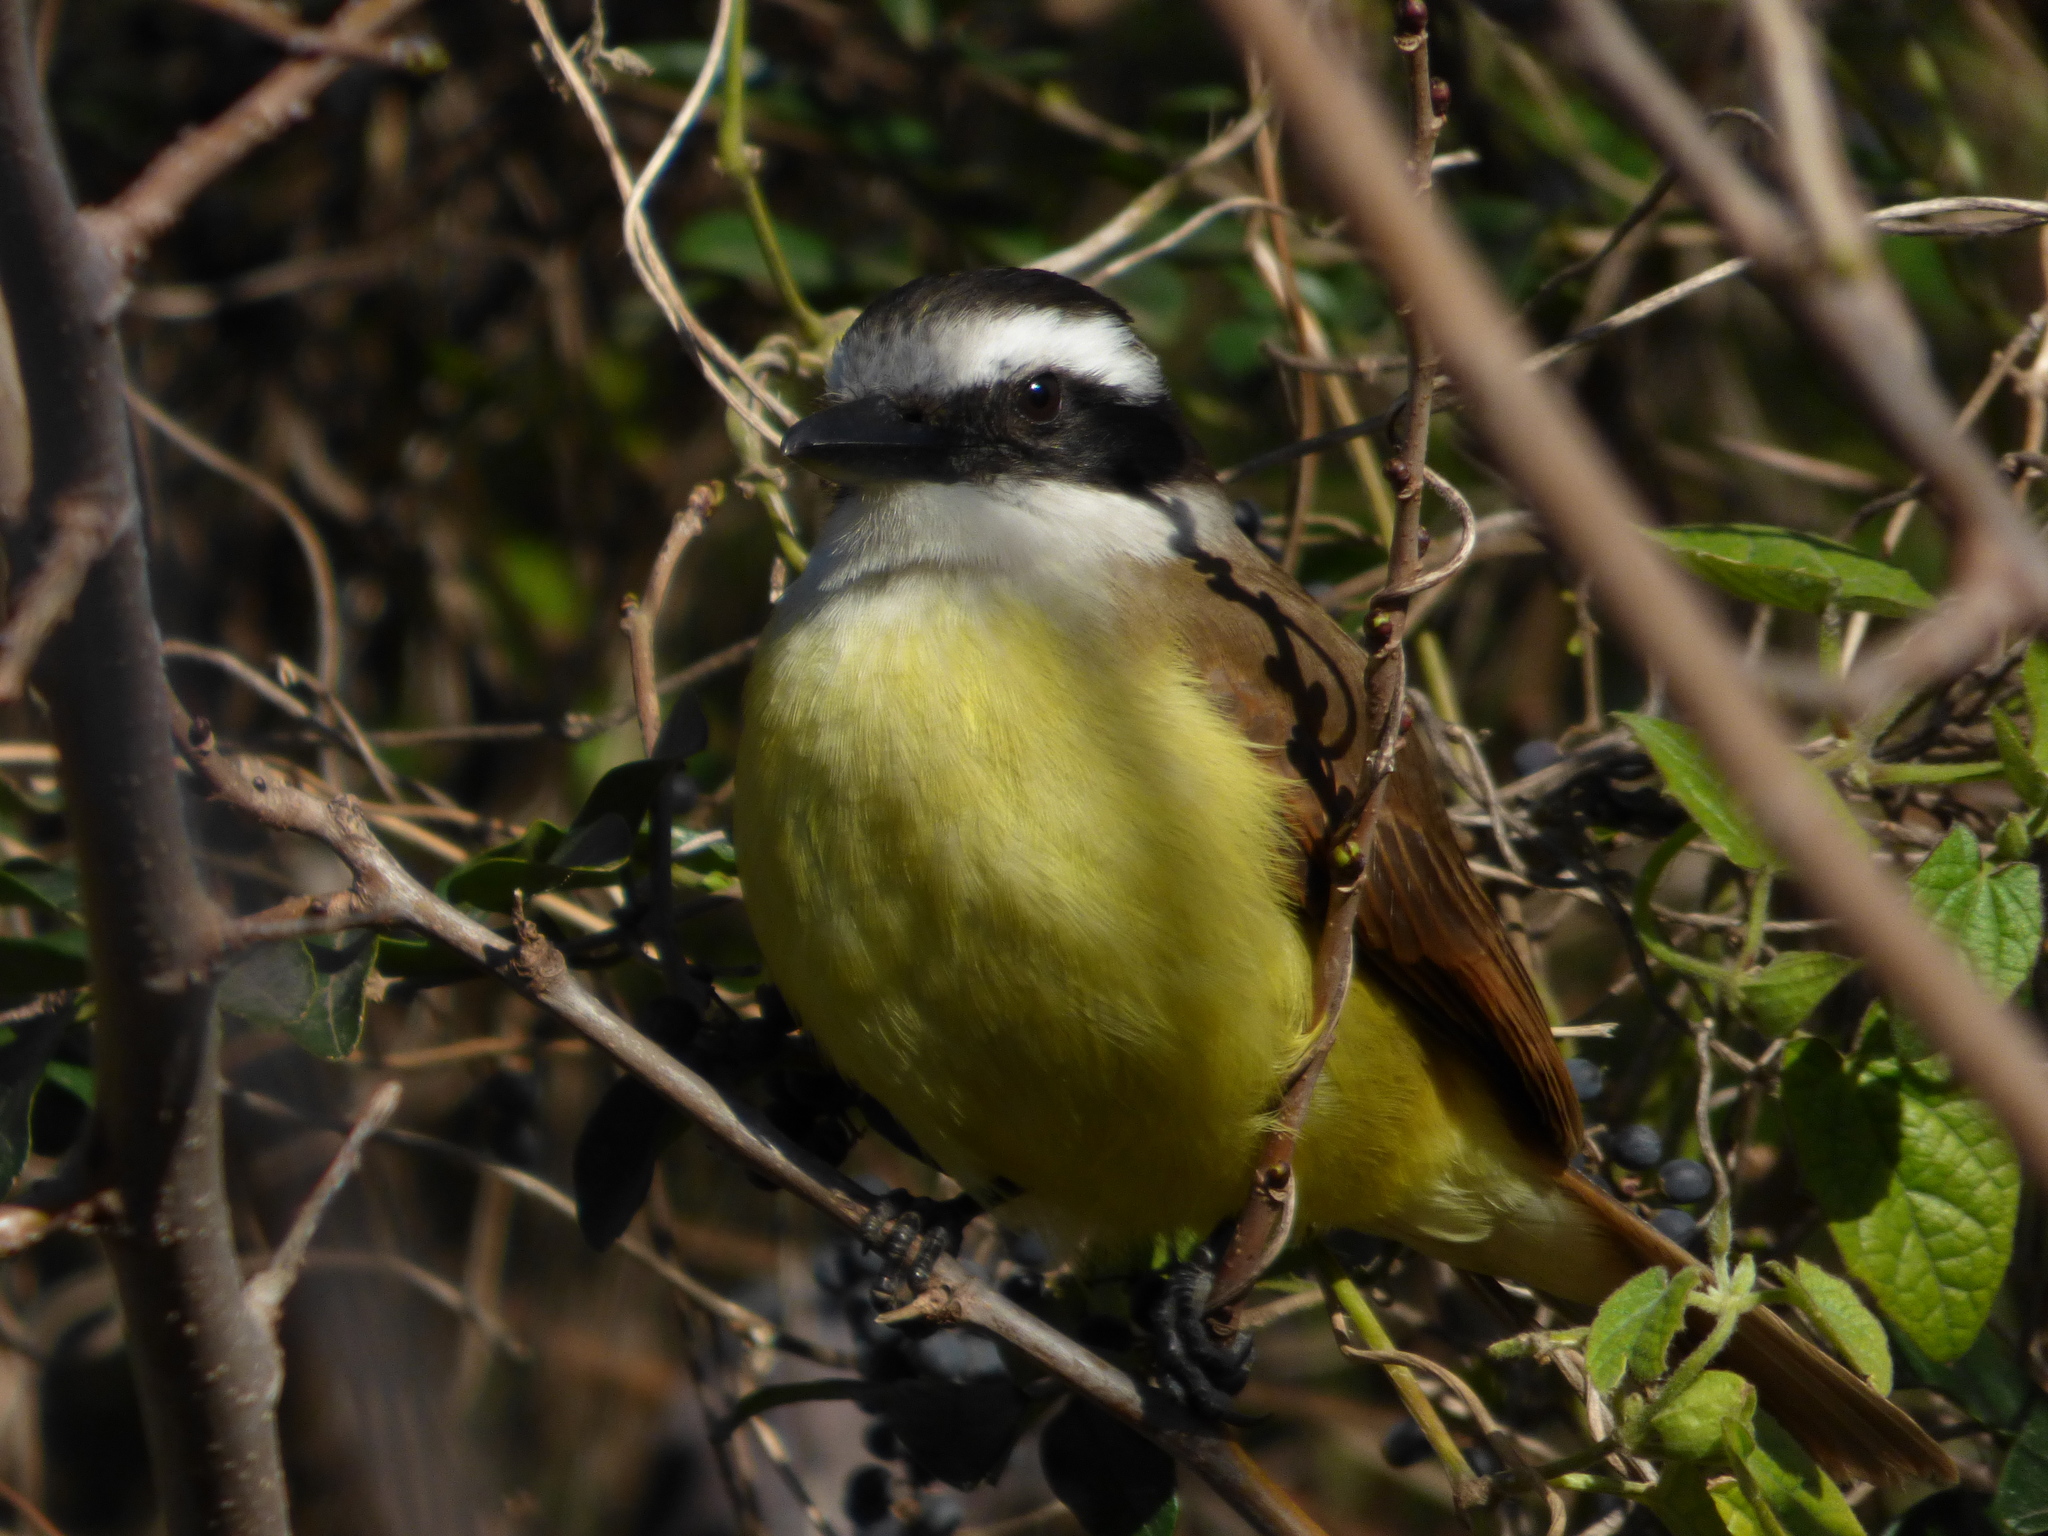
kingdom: Animalia
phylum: Chordata
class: Aves
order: Passeriformes
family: Tyrannidae
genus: Pitangus
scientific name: Pitangus sulphuratus
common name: Great kiskadee
